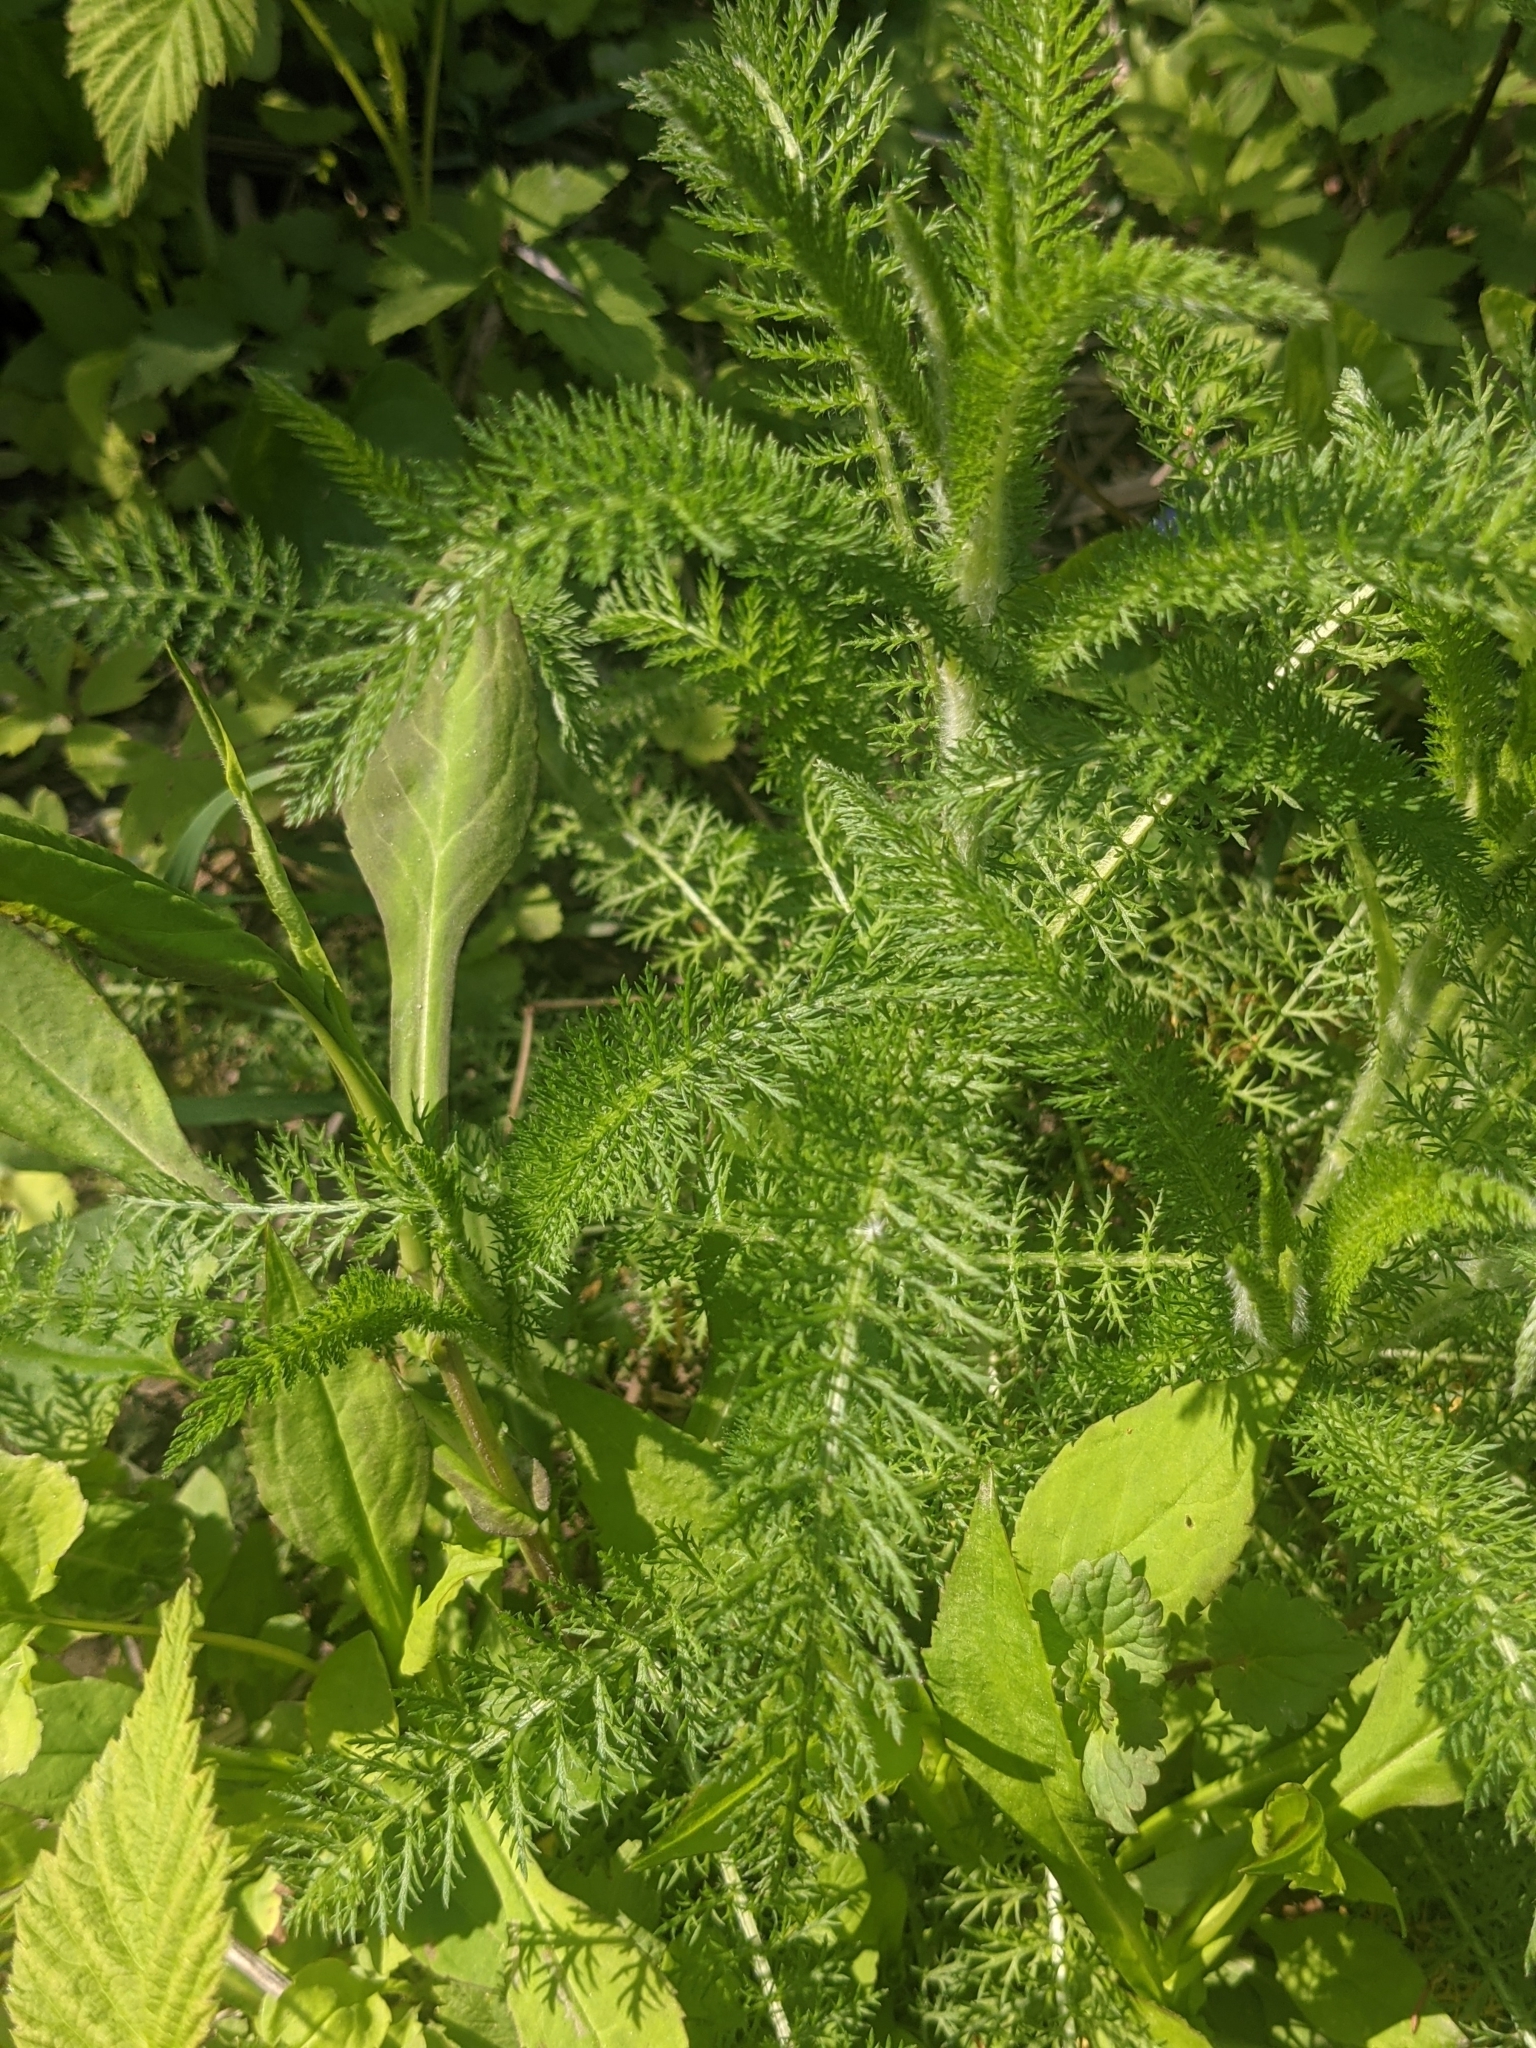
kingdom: Plantae
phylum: Tracheophyta
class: Magnoliopsida
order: Asterales
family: Asteraceae
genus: Achillea
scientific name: Achillea millefolium
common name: Yarrow
